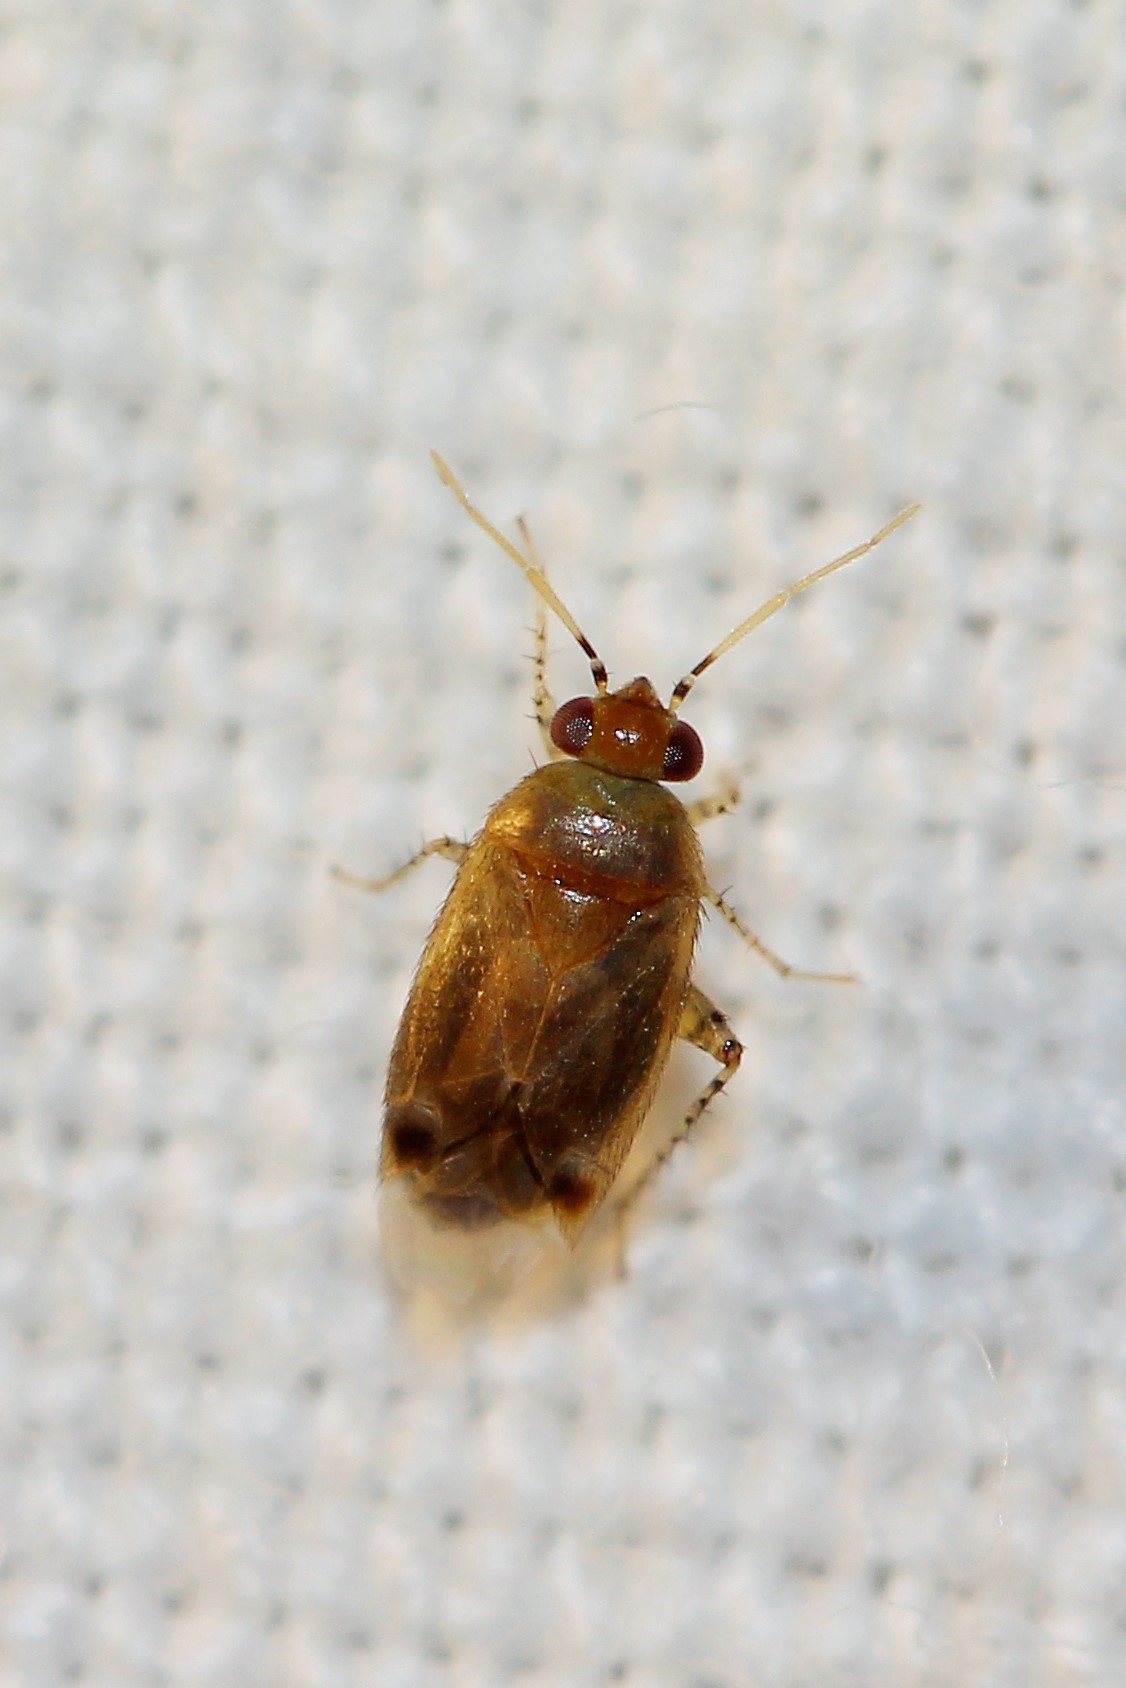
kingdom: Animalia
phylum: Arthropoda
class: Insecta
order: Hemiptera
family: Miridae
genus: Campylomma
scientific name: Campylomma verbasci
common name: Mullein bug
